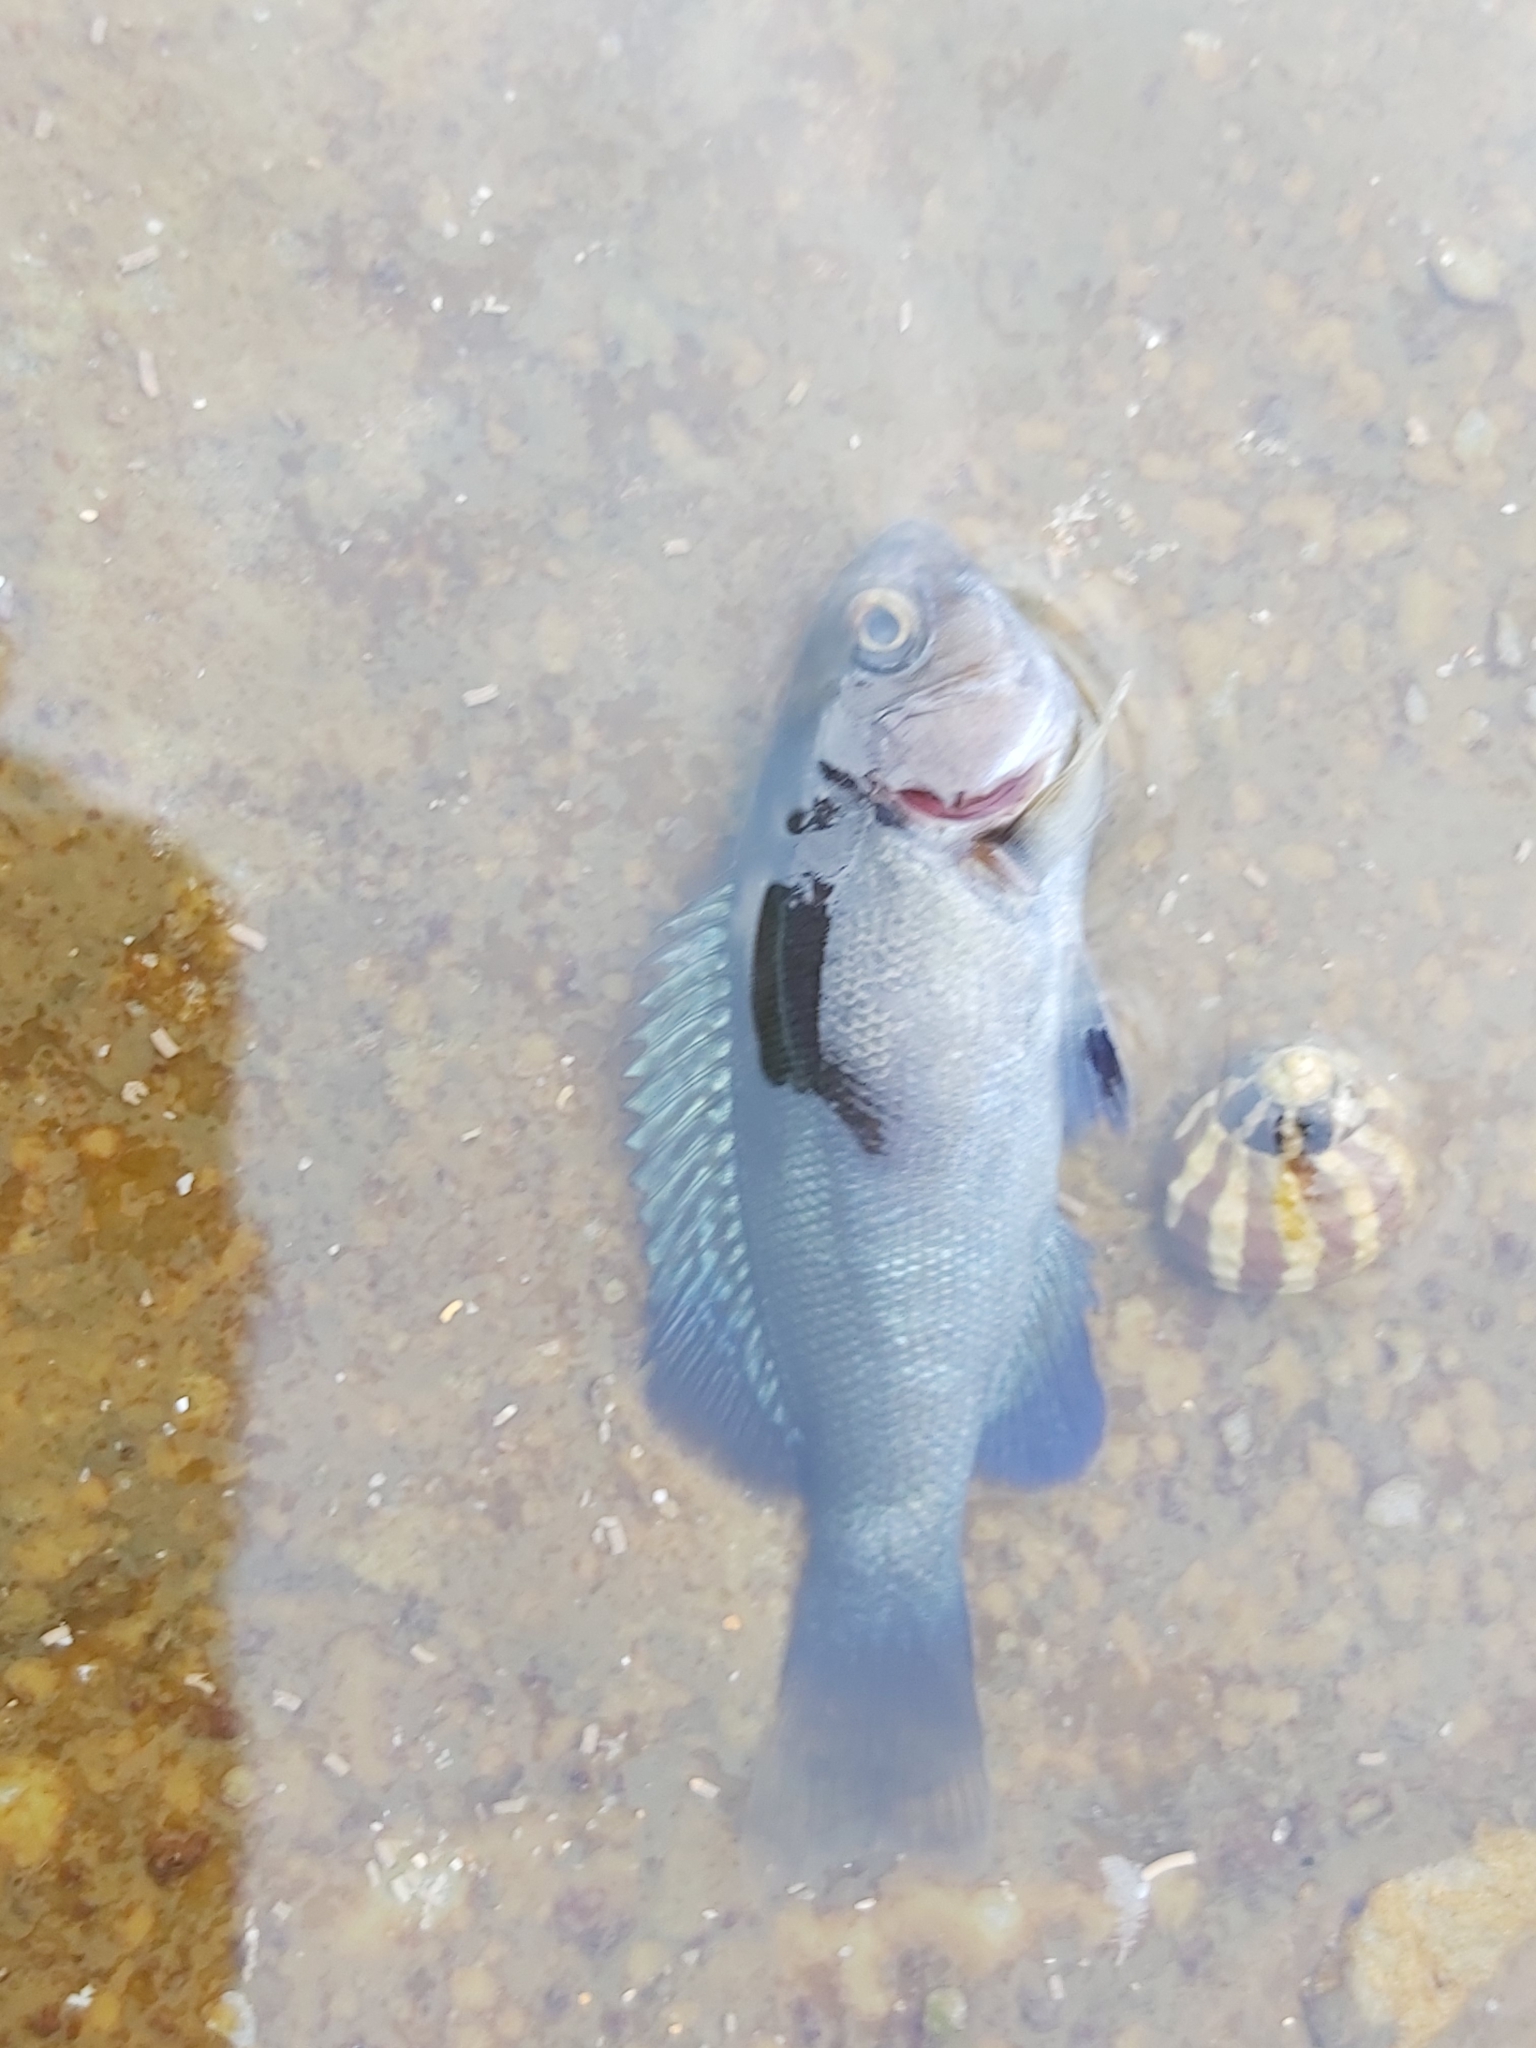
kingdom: Animalia
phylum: Chordata
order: Perciformes
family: Kyphosidae
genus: Girella
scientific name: Girella cyanea
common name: Bluefish
